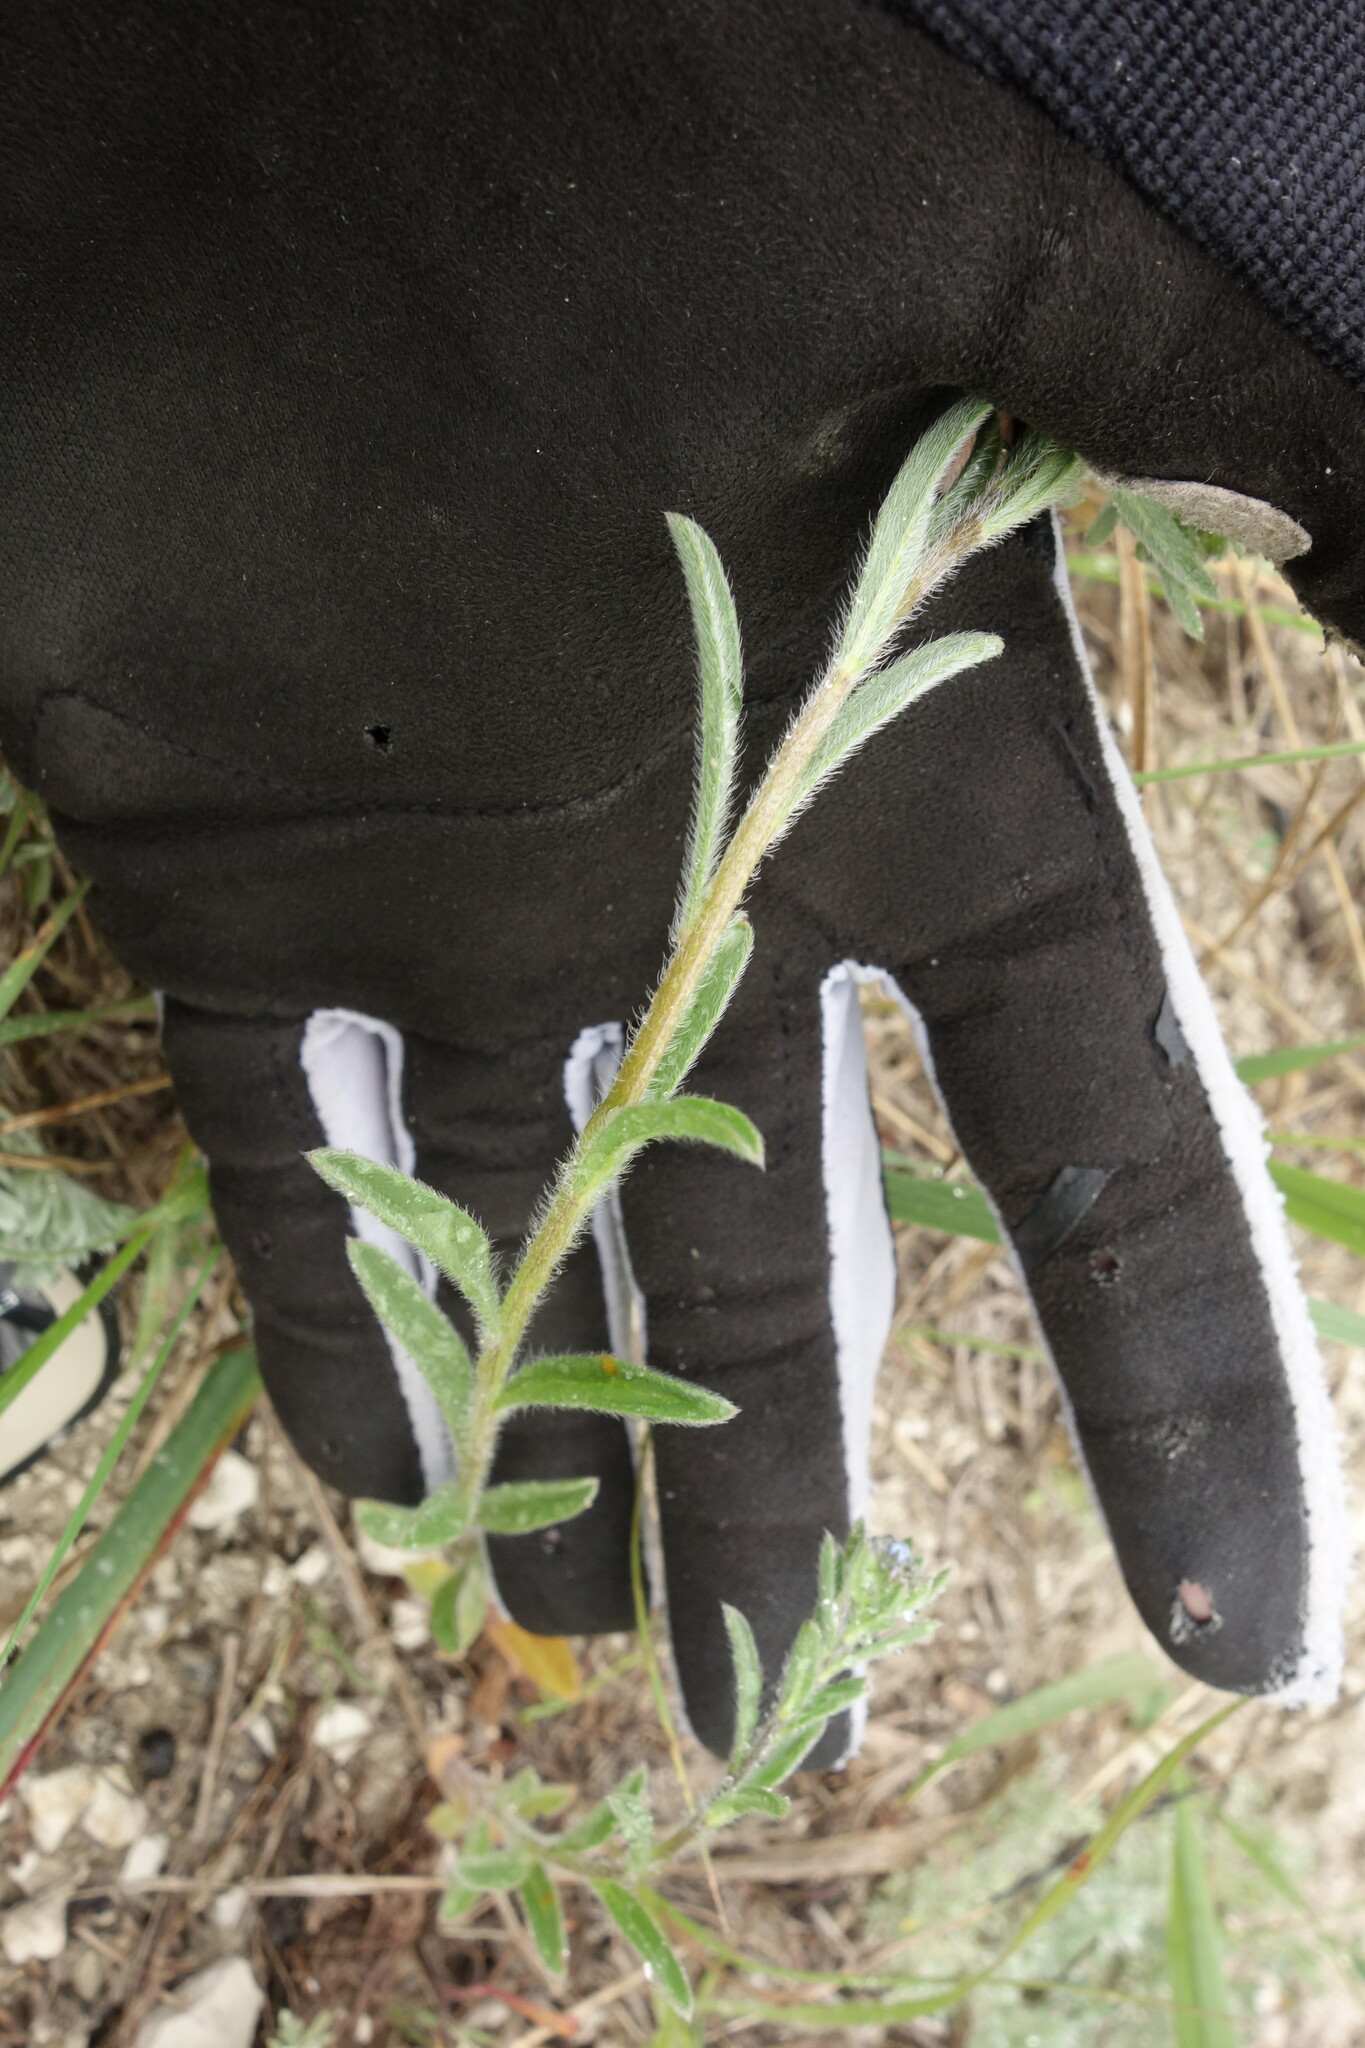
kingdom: Plantae
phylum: Tracheophyta
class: Magnoliopsida
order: Boraginales
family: Boraginaceae
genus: Lappula
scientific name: Lappula squarrosa
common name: European stickseed
